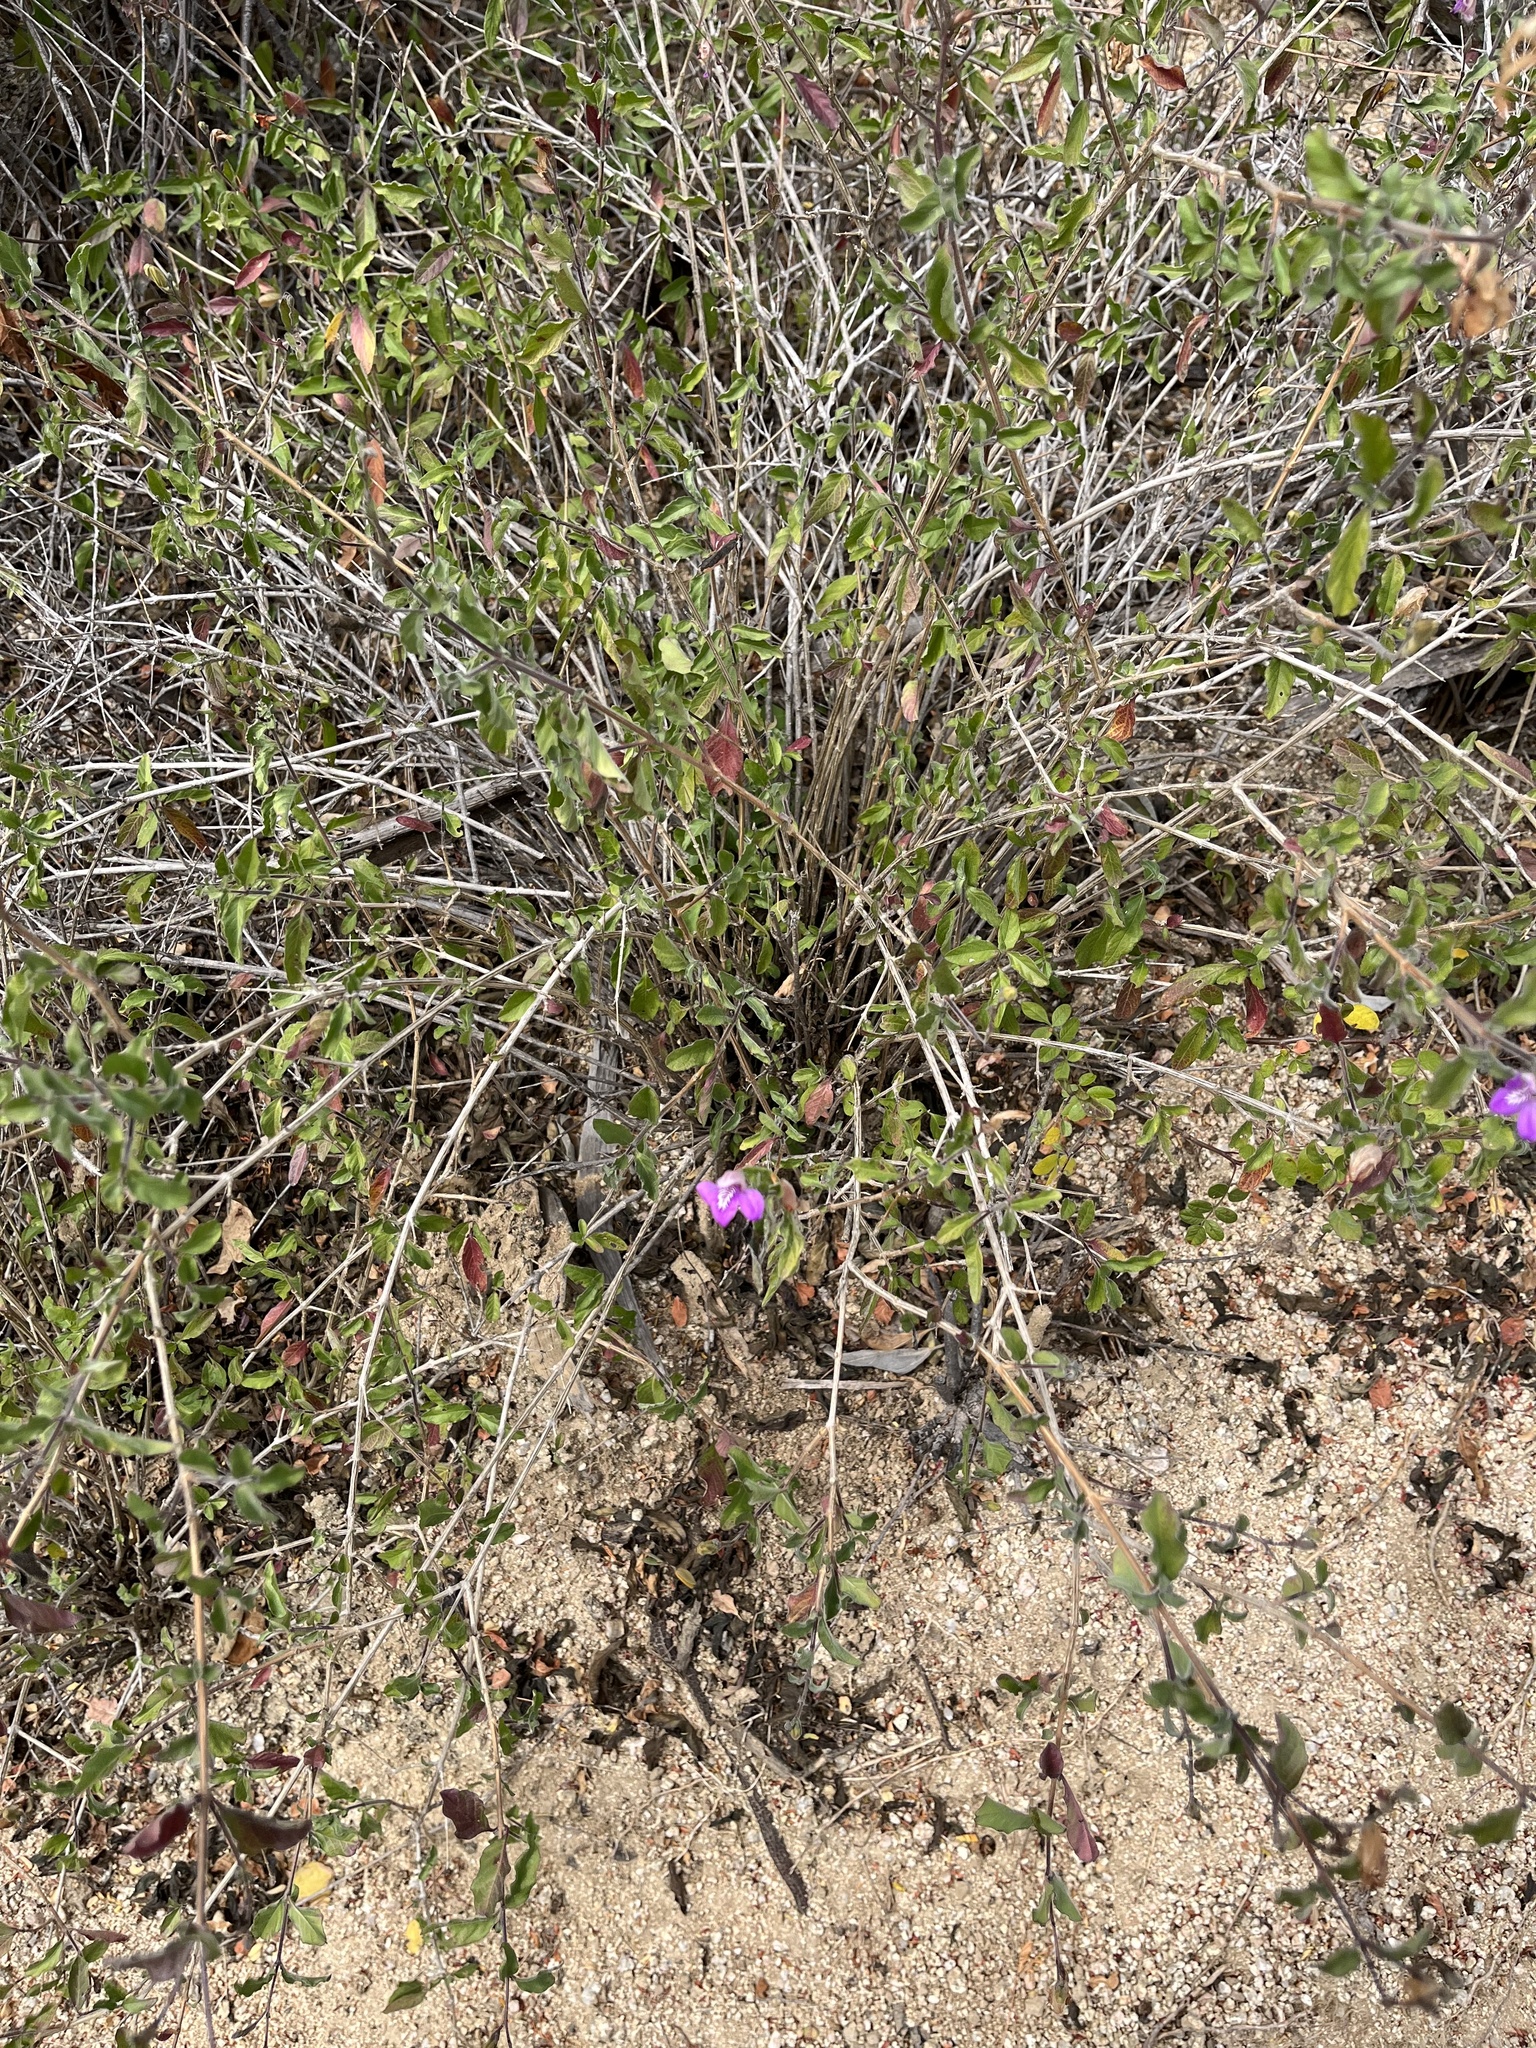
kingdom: Plantae
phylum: Tracheophyta
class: Magnoliopsida
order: Lamiales
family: Acanthaceae
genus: Justicia
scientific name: Justicia insolita
